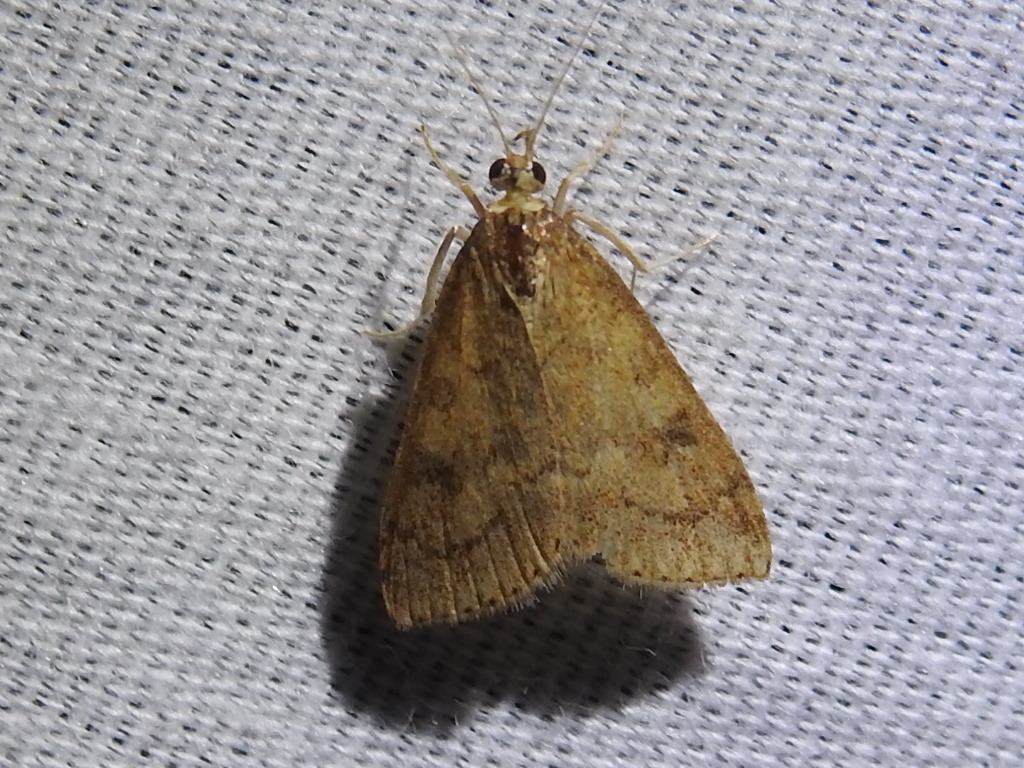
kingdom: Animalia
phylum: Arthropoda
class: Insecta
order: Lepidoptera
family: Crambidae
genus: Udea
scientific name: Udea rubigalis
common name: Celery leaftier moth
